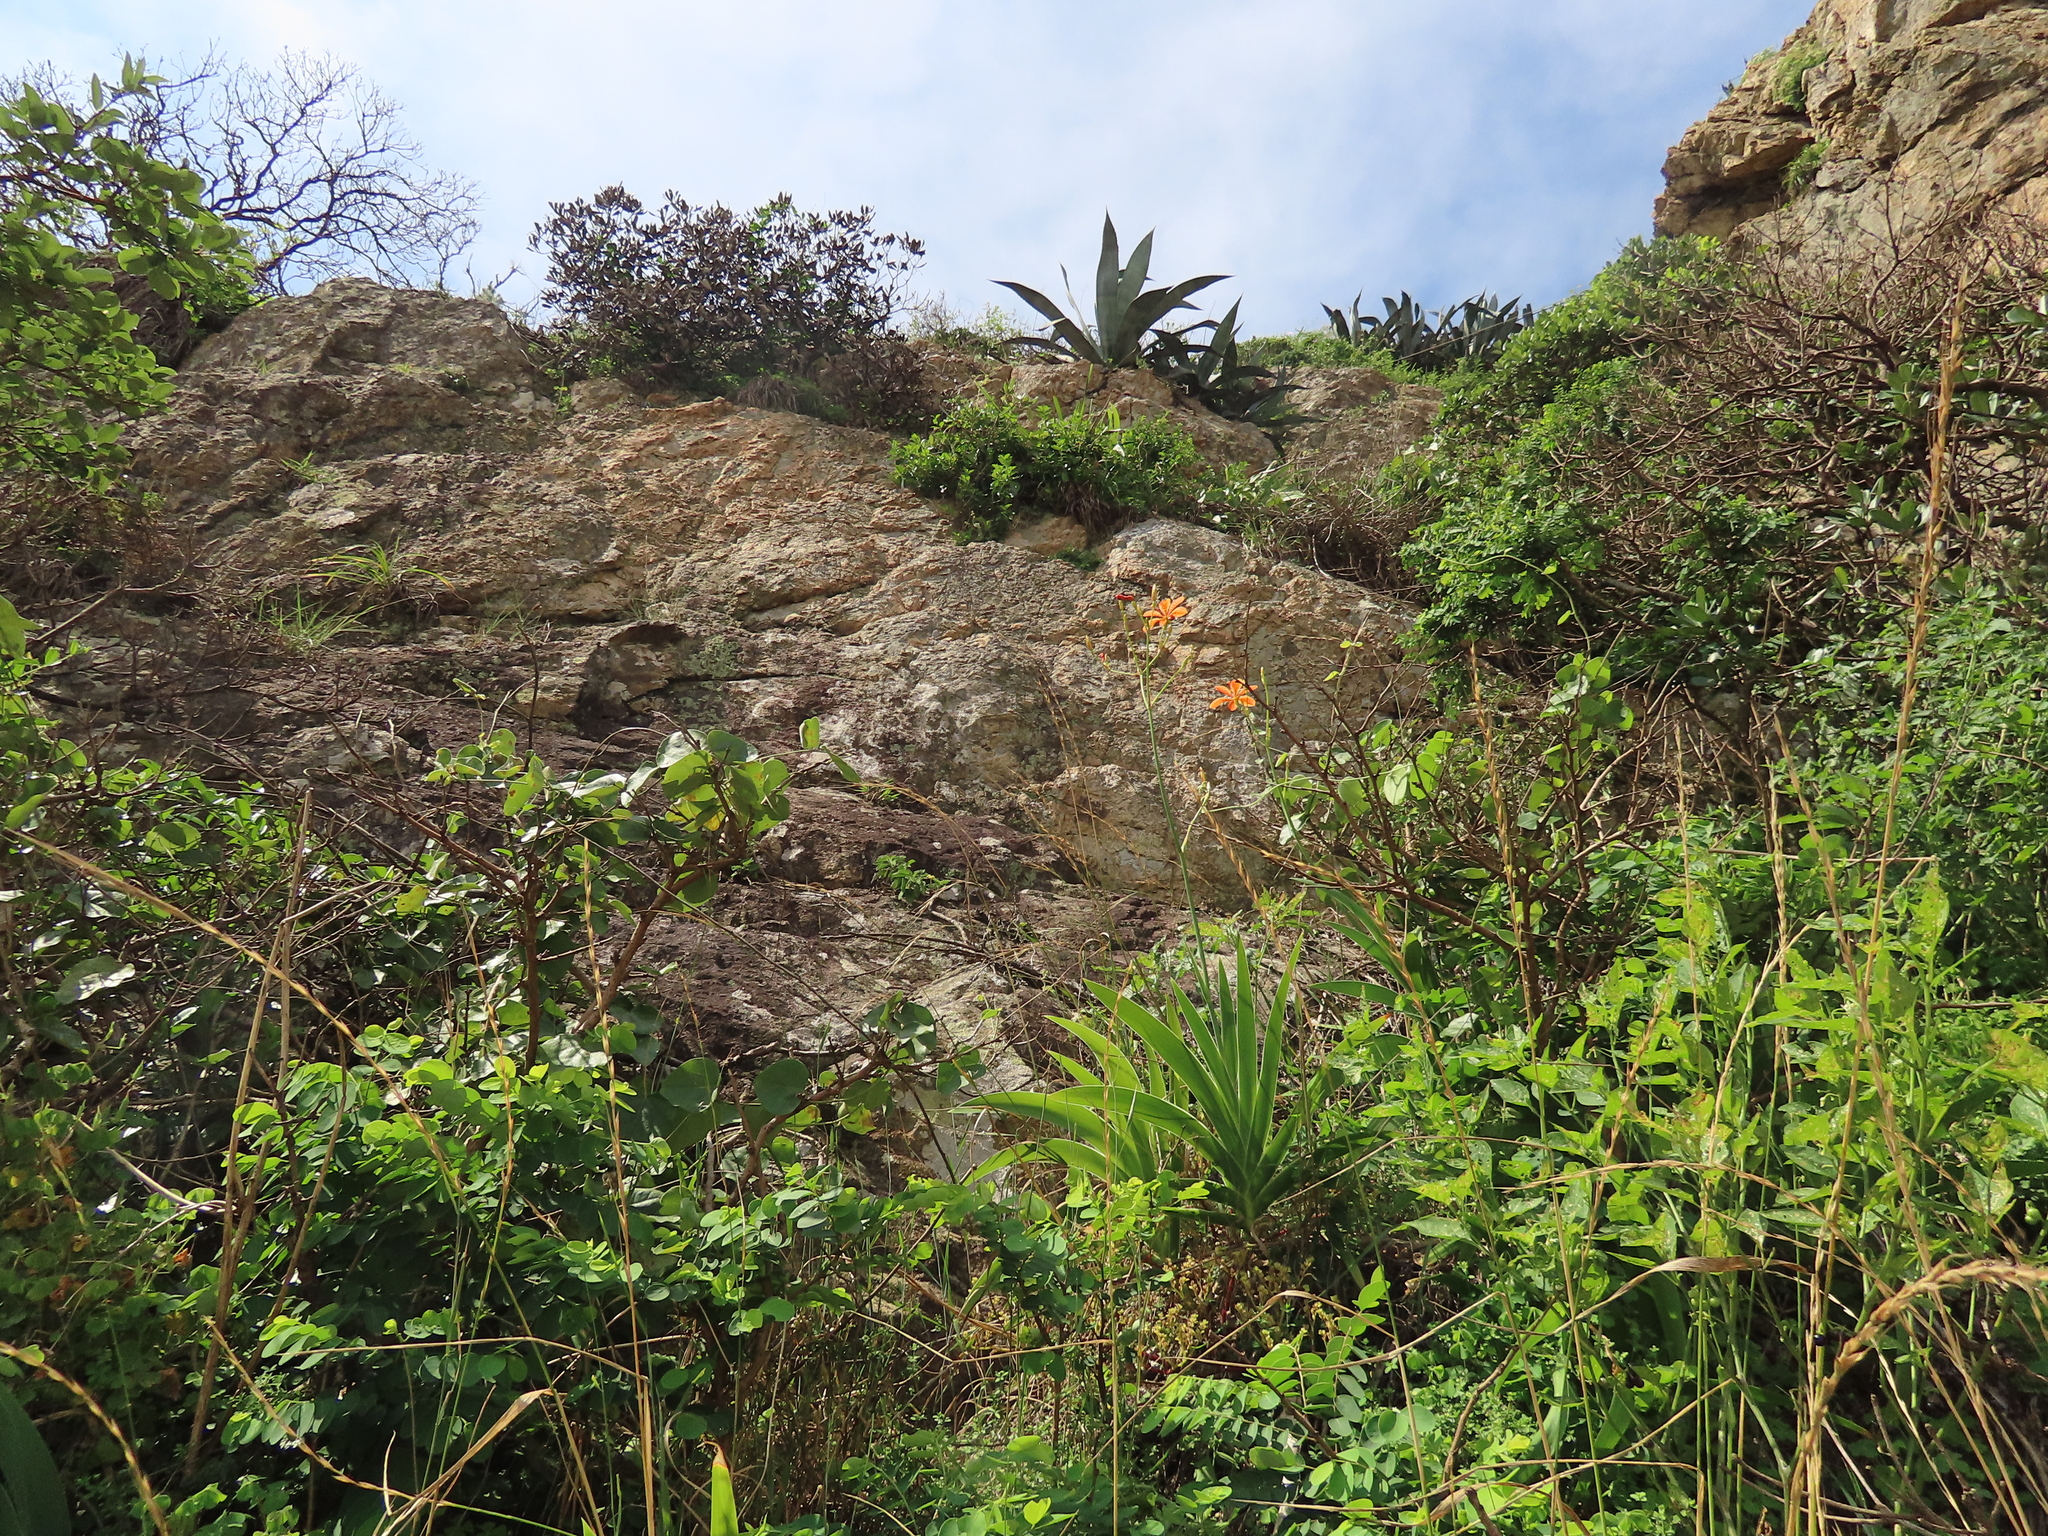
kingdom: Plantae
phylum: Tracheophyta
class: Liliopsida
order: Asparagales
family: Iridaceae
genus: Iris
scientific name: Iris domestica
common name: Belamcanda
